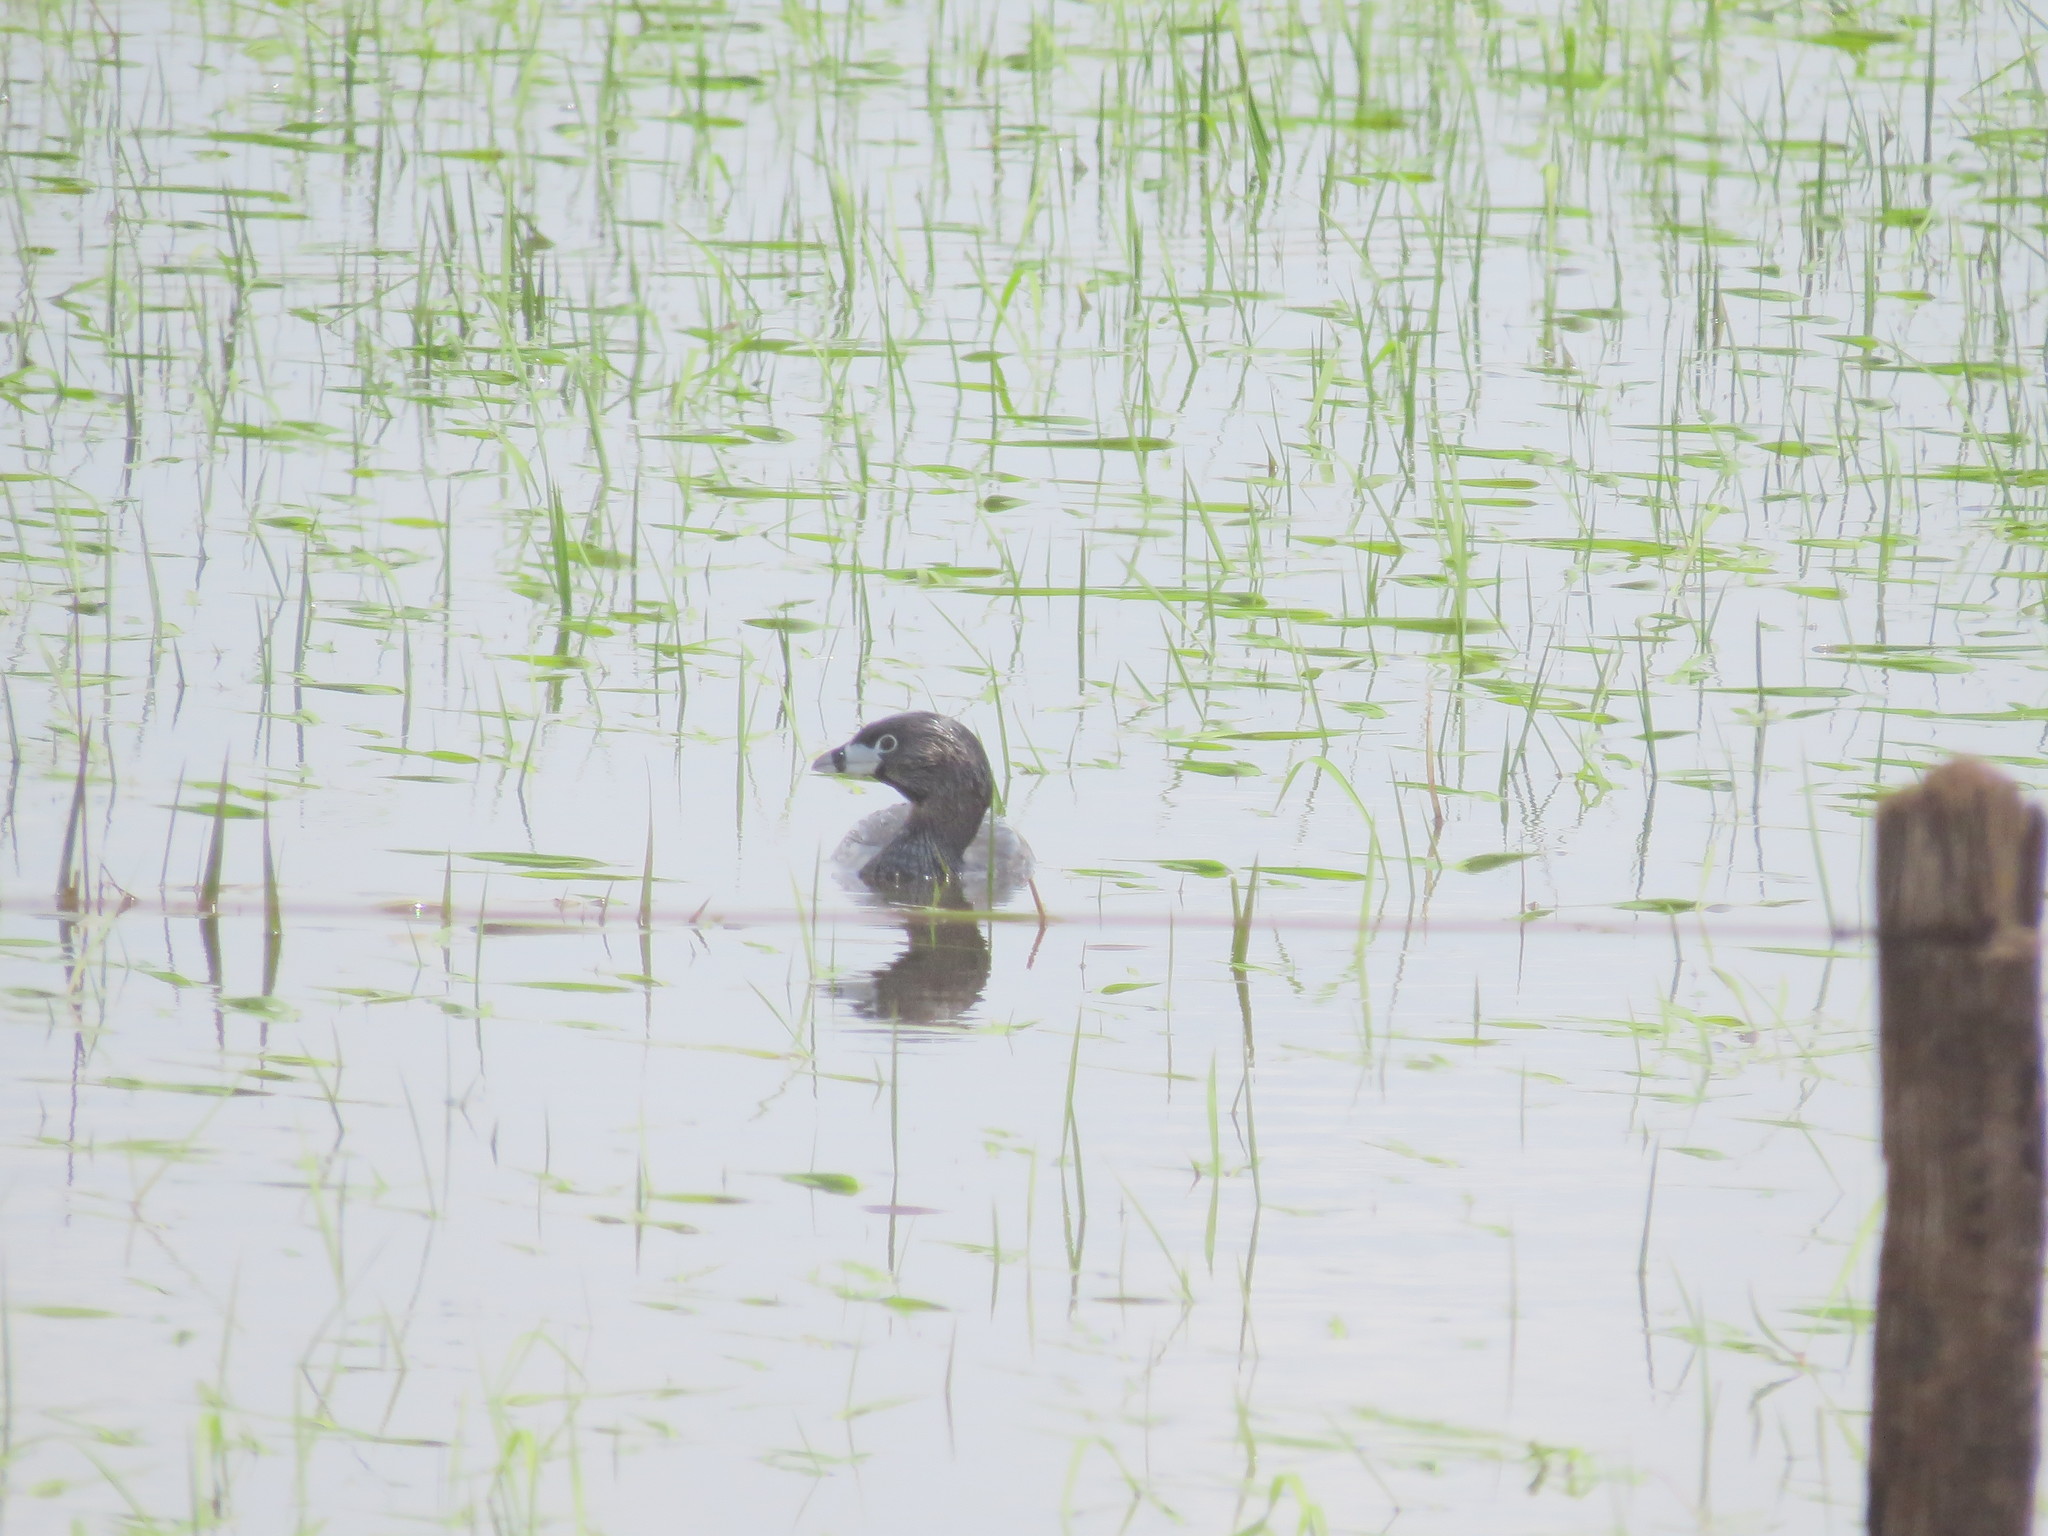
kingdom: Animalia
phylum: Chordata
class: Aves
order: Podicipediformes
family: Podicipedidae
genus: Podilymbus
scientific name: Podilymbus podiceps
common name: Pied-billed grebe
